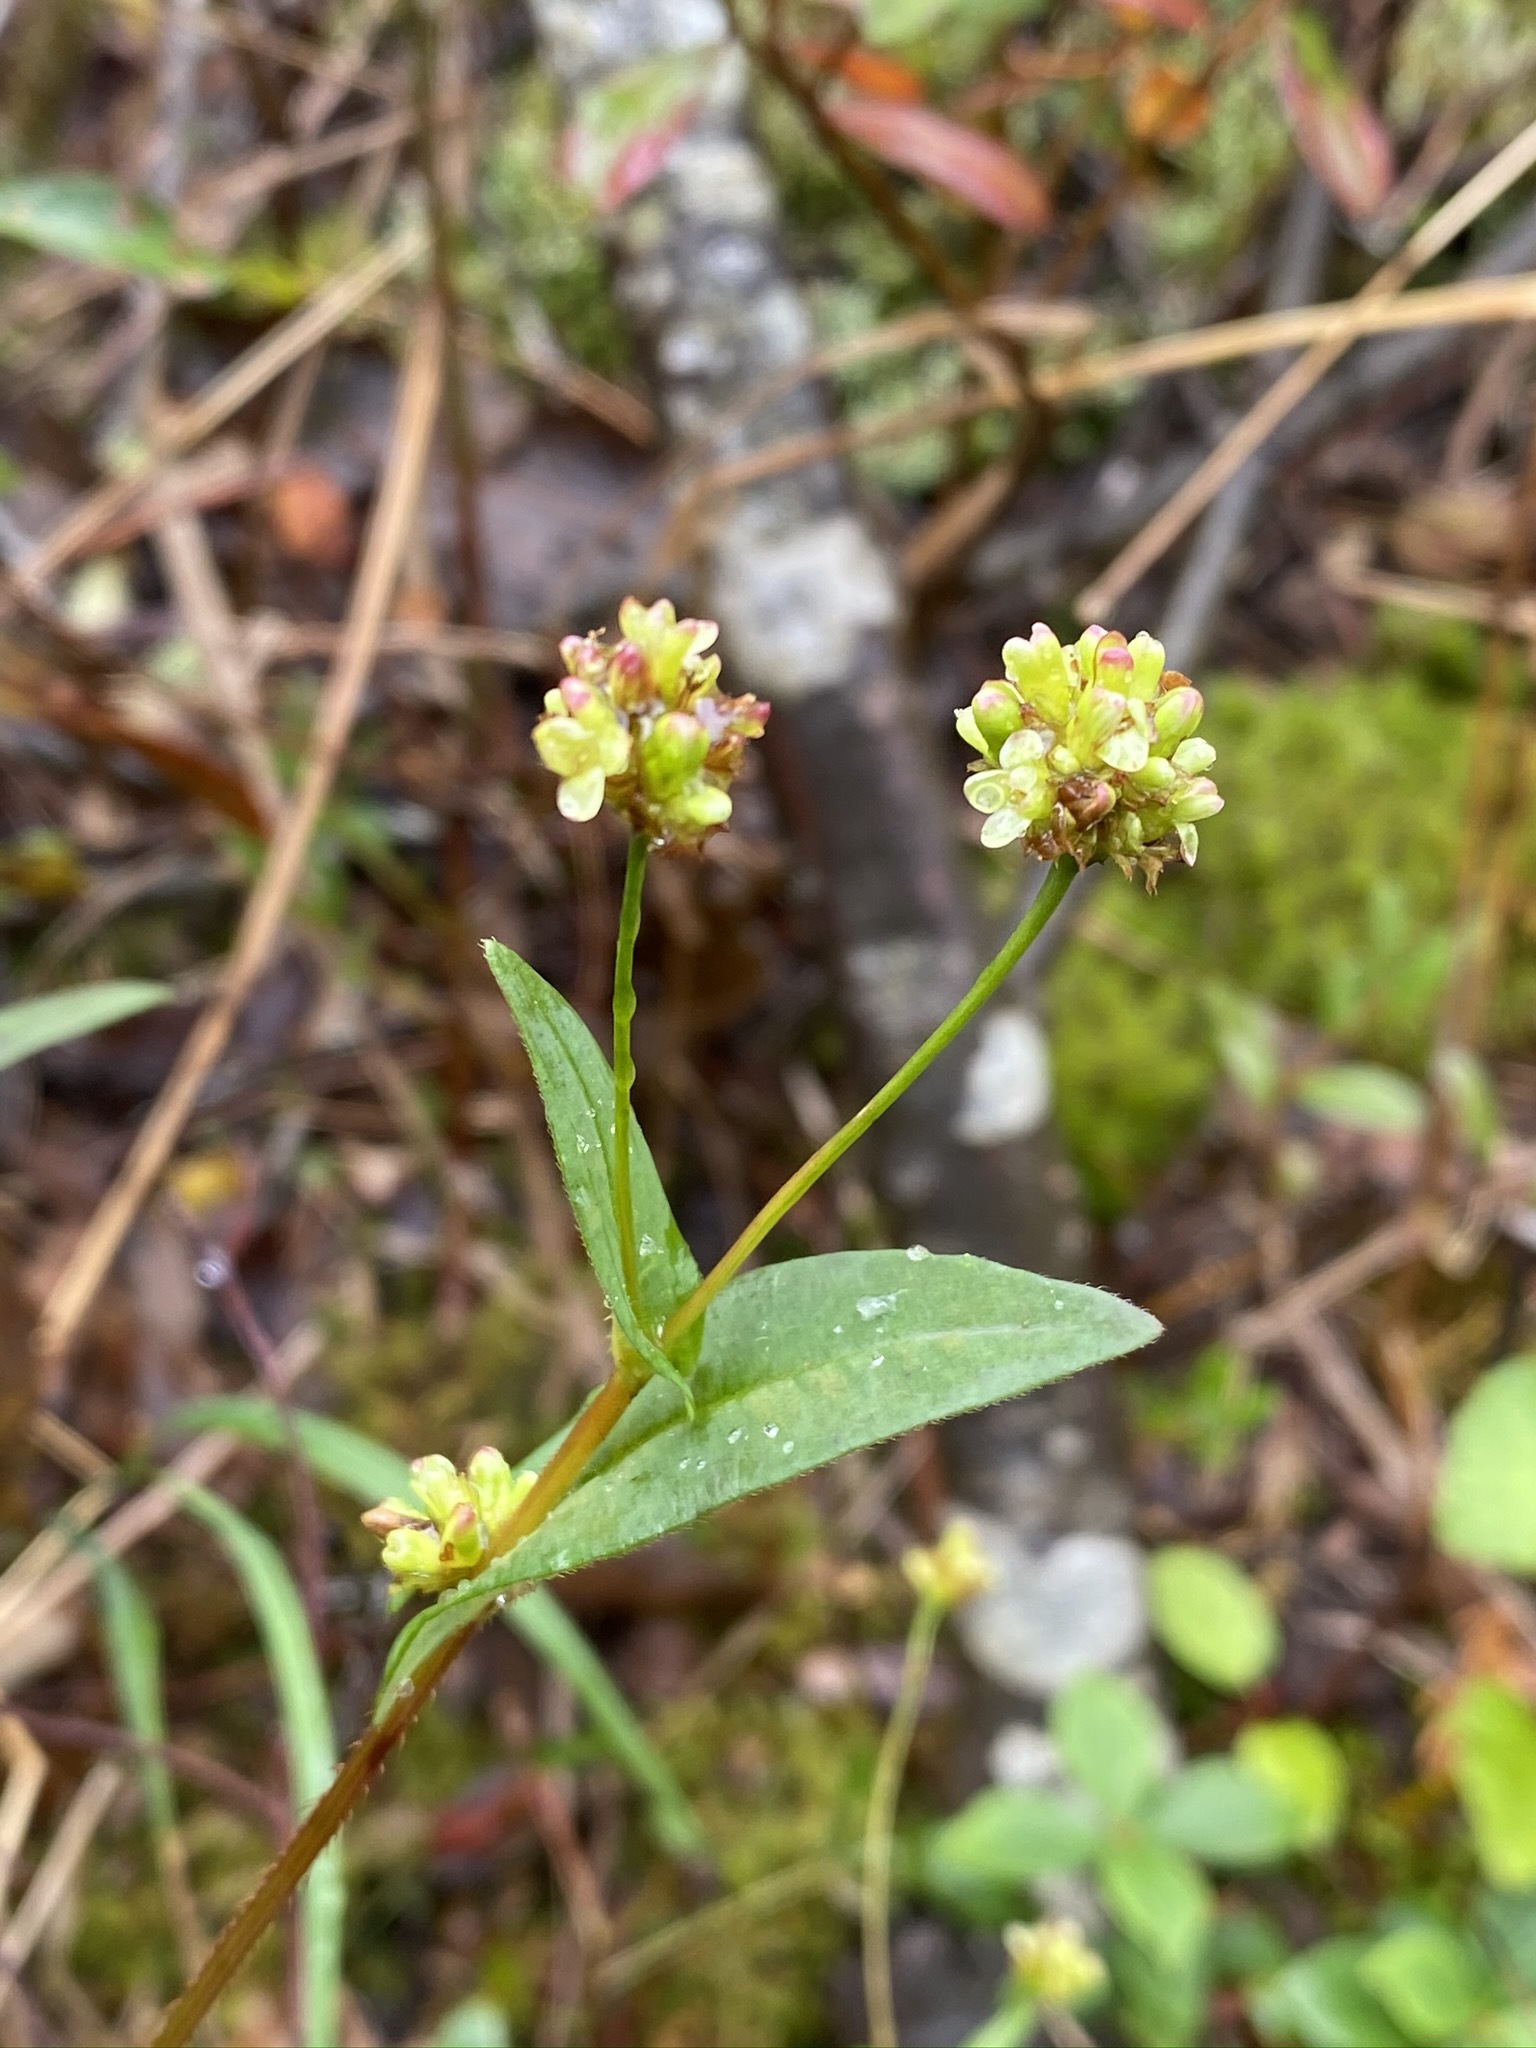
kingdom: Plantae
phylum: Tracheophyta
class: Magnoliopsida
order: Caryophyllales
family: Polygonaceae
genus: Persicaria
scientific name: Persicaria sagittata
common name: American tearthumb
